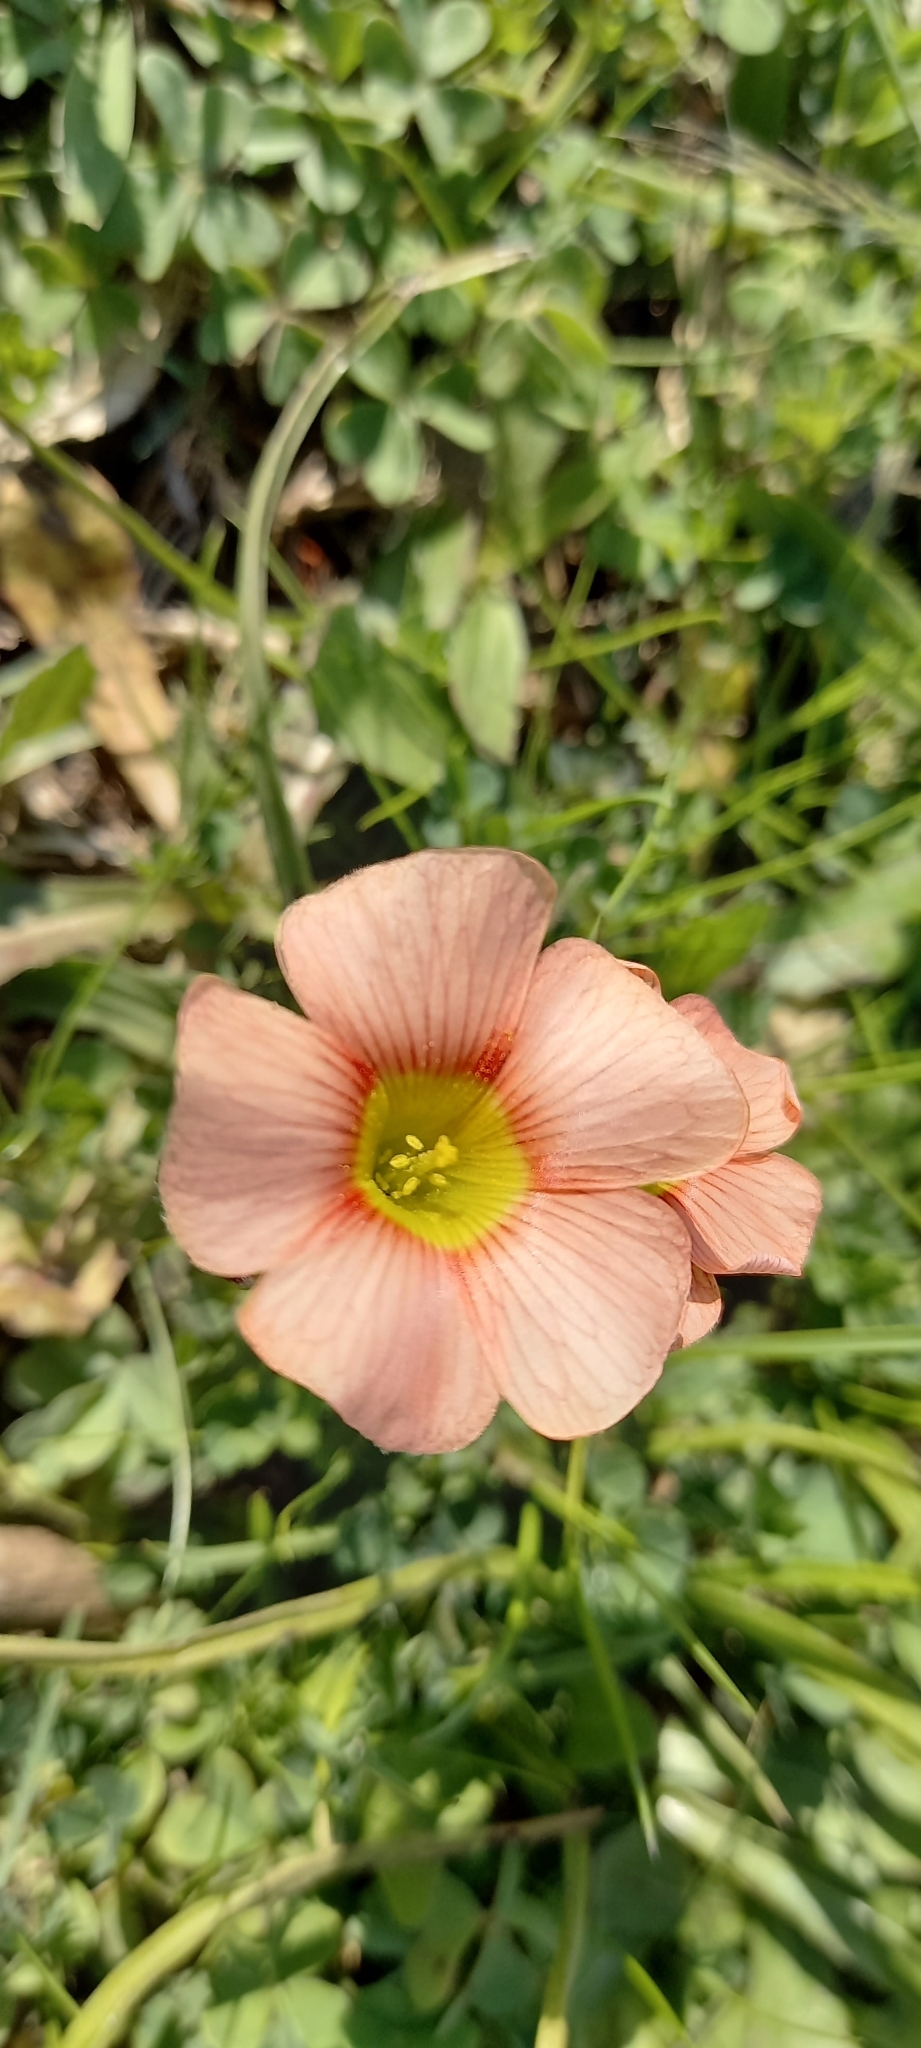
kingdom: Plantae
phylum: Tracheophyta
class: Magnoliopsida
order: Oxalidales
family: Oxalidaceae
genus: Oxalis
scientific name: Oxalis obtusa
